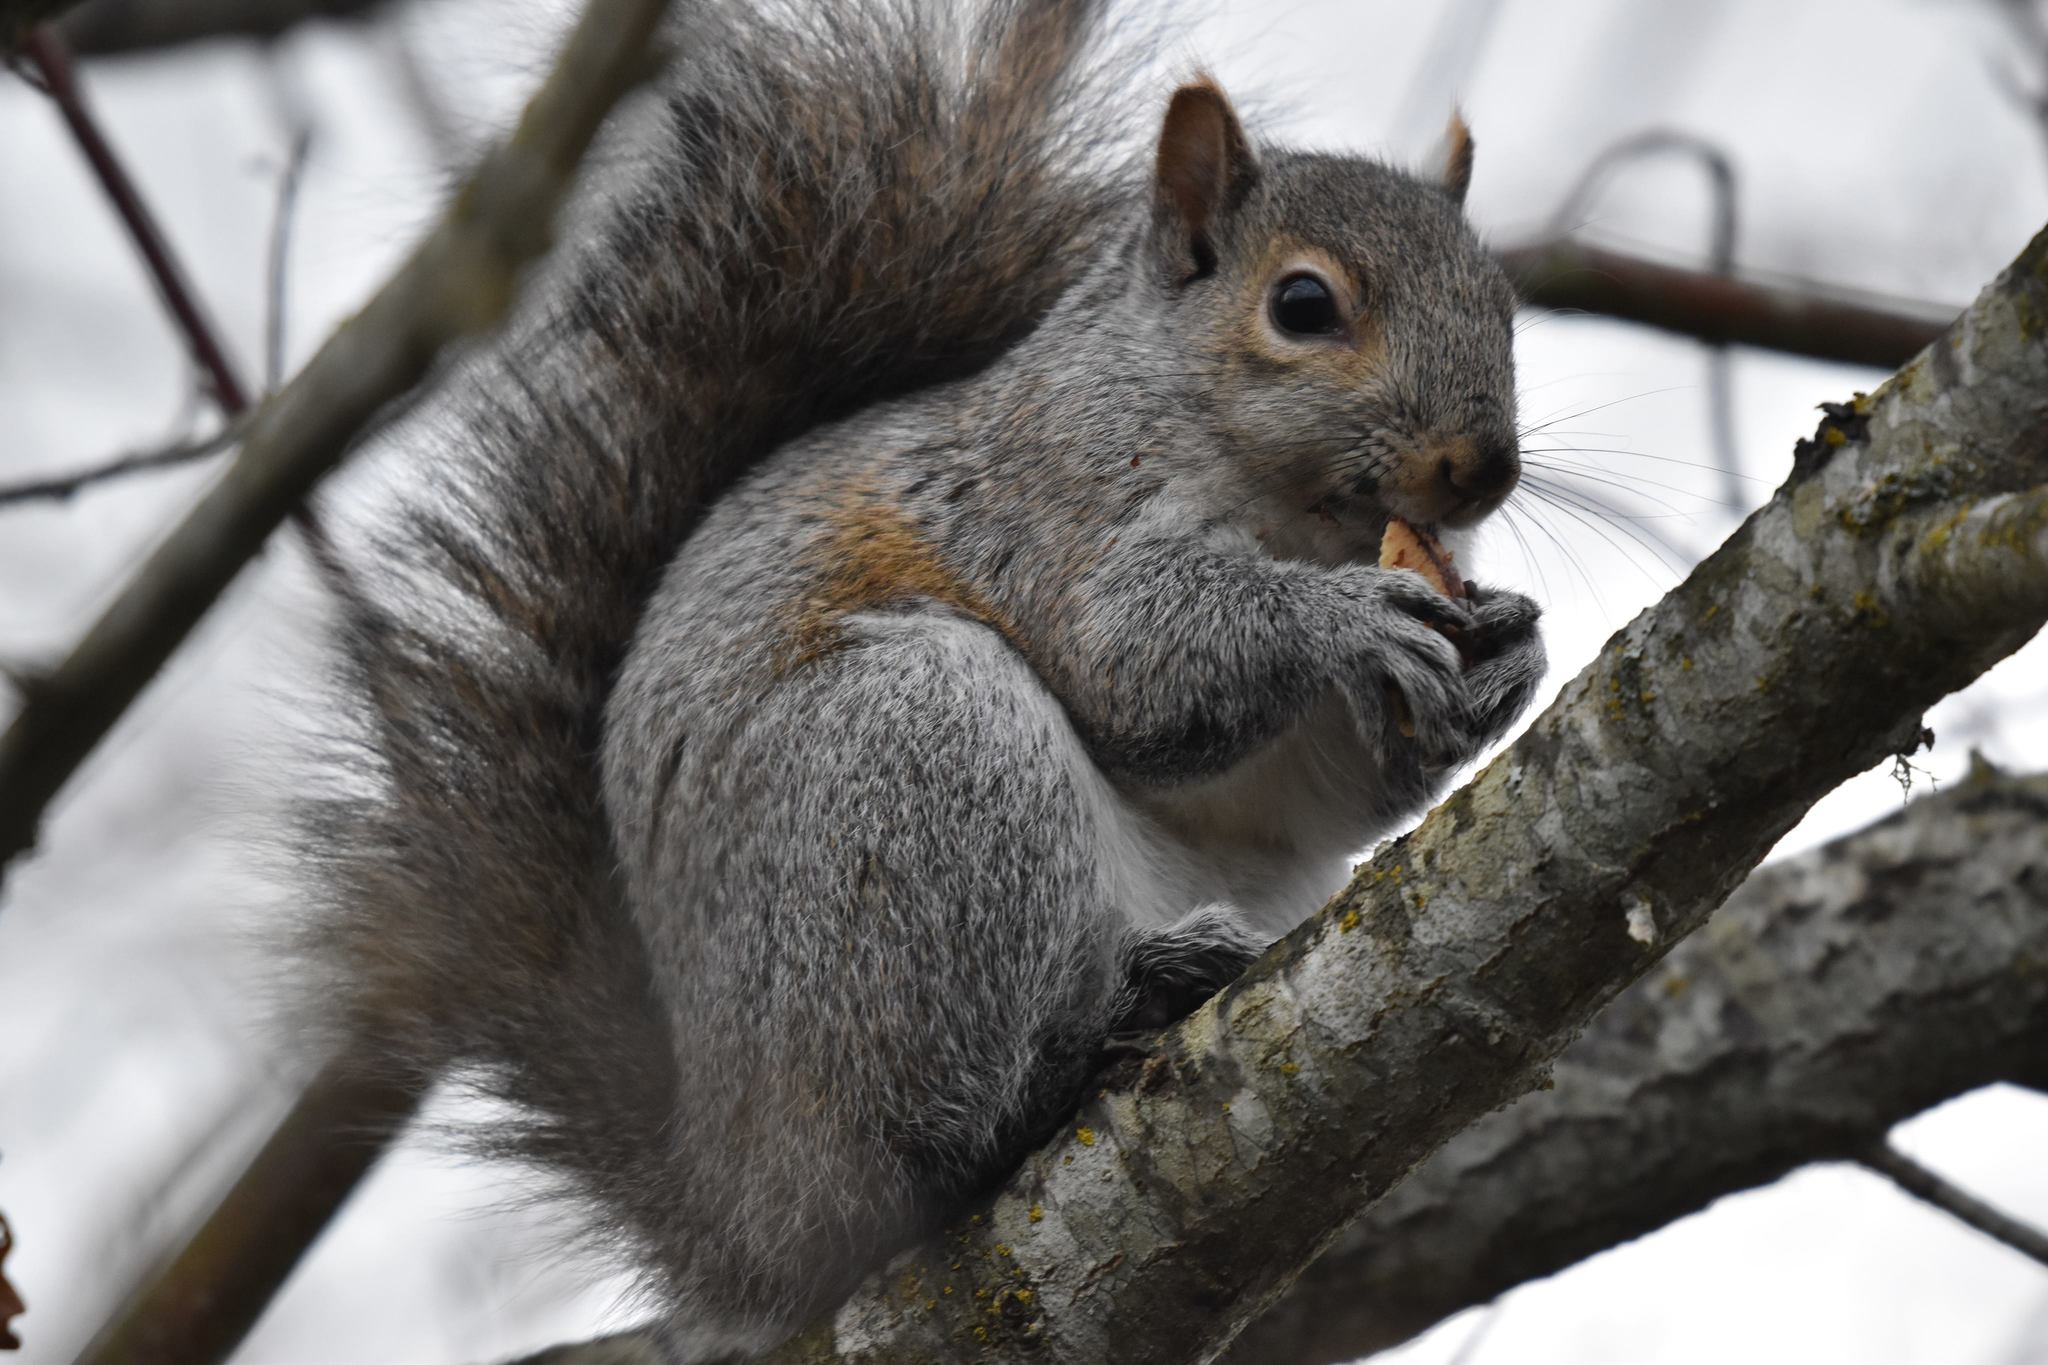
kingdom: Animalia
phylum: Chordata
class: Mammalia
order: Rodentia
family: Sciuridae
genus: Sciurus
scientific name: Sciurus carolinensis
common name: Eastern gray squirrel
